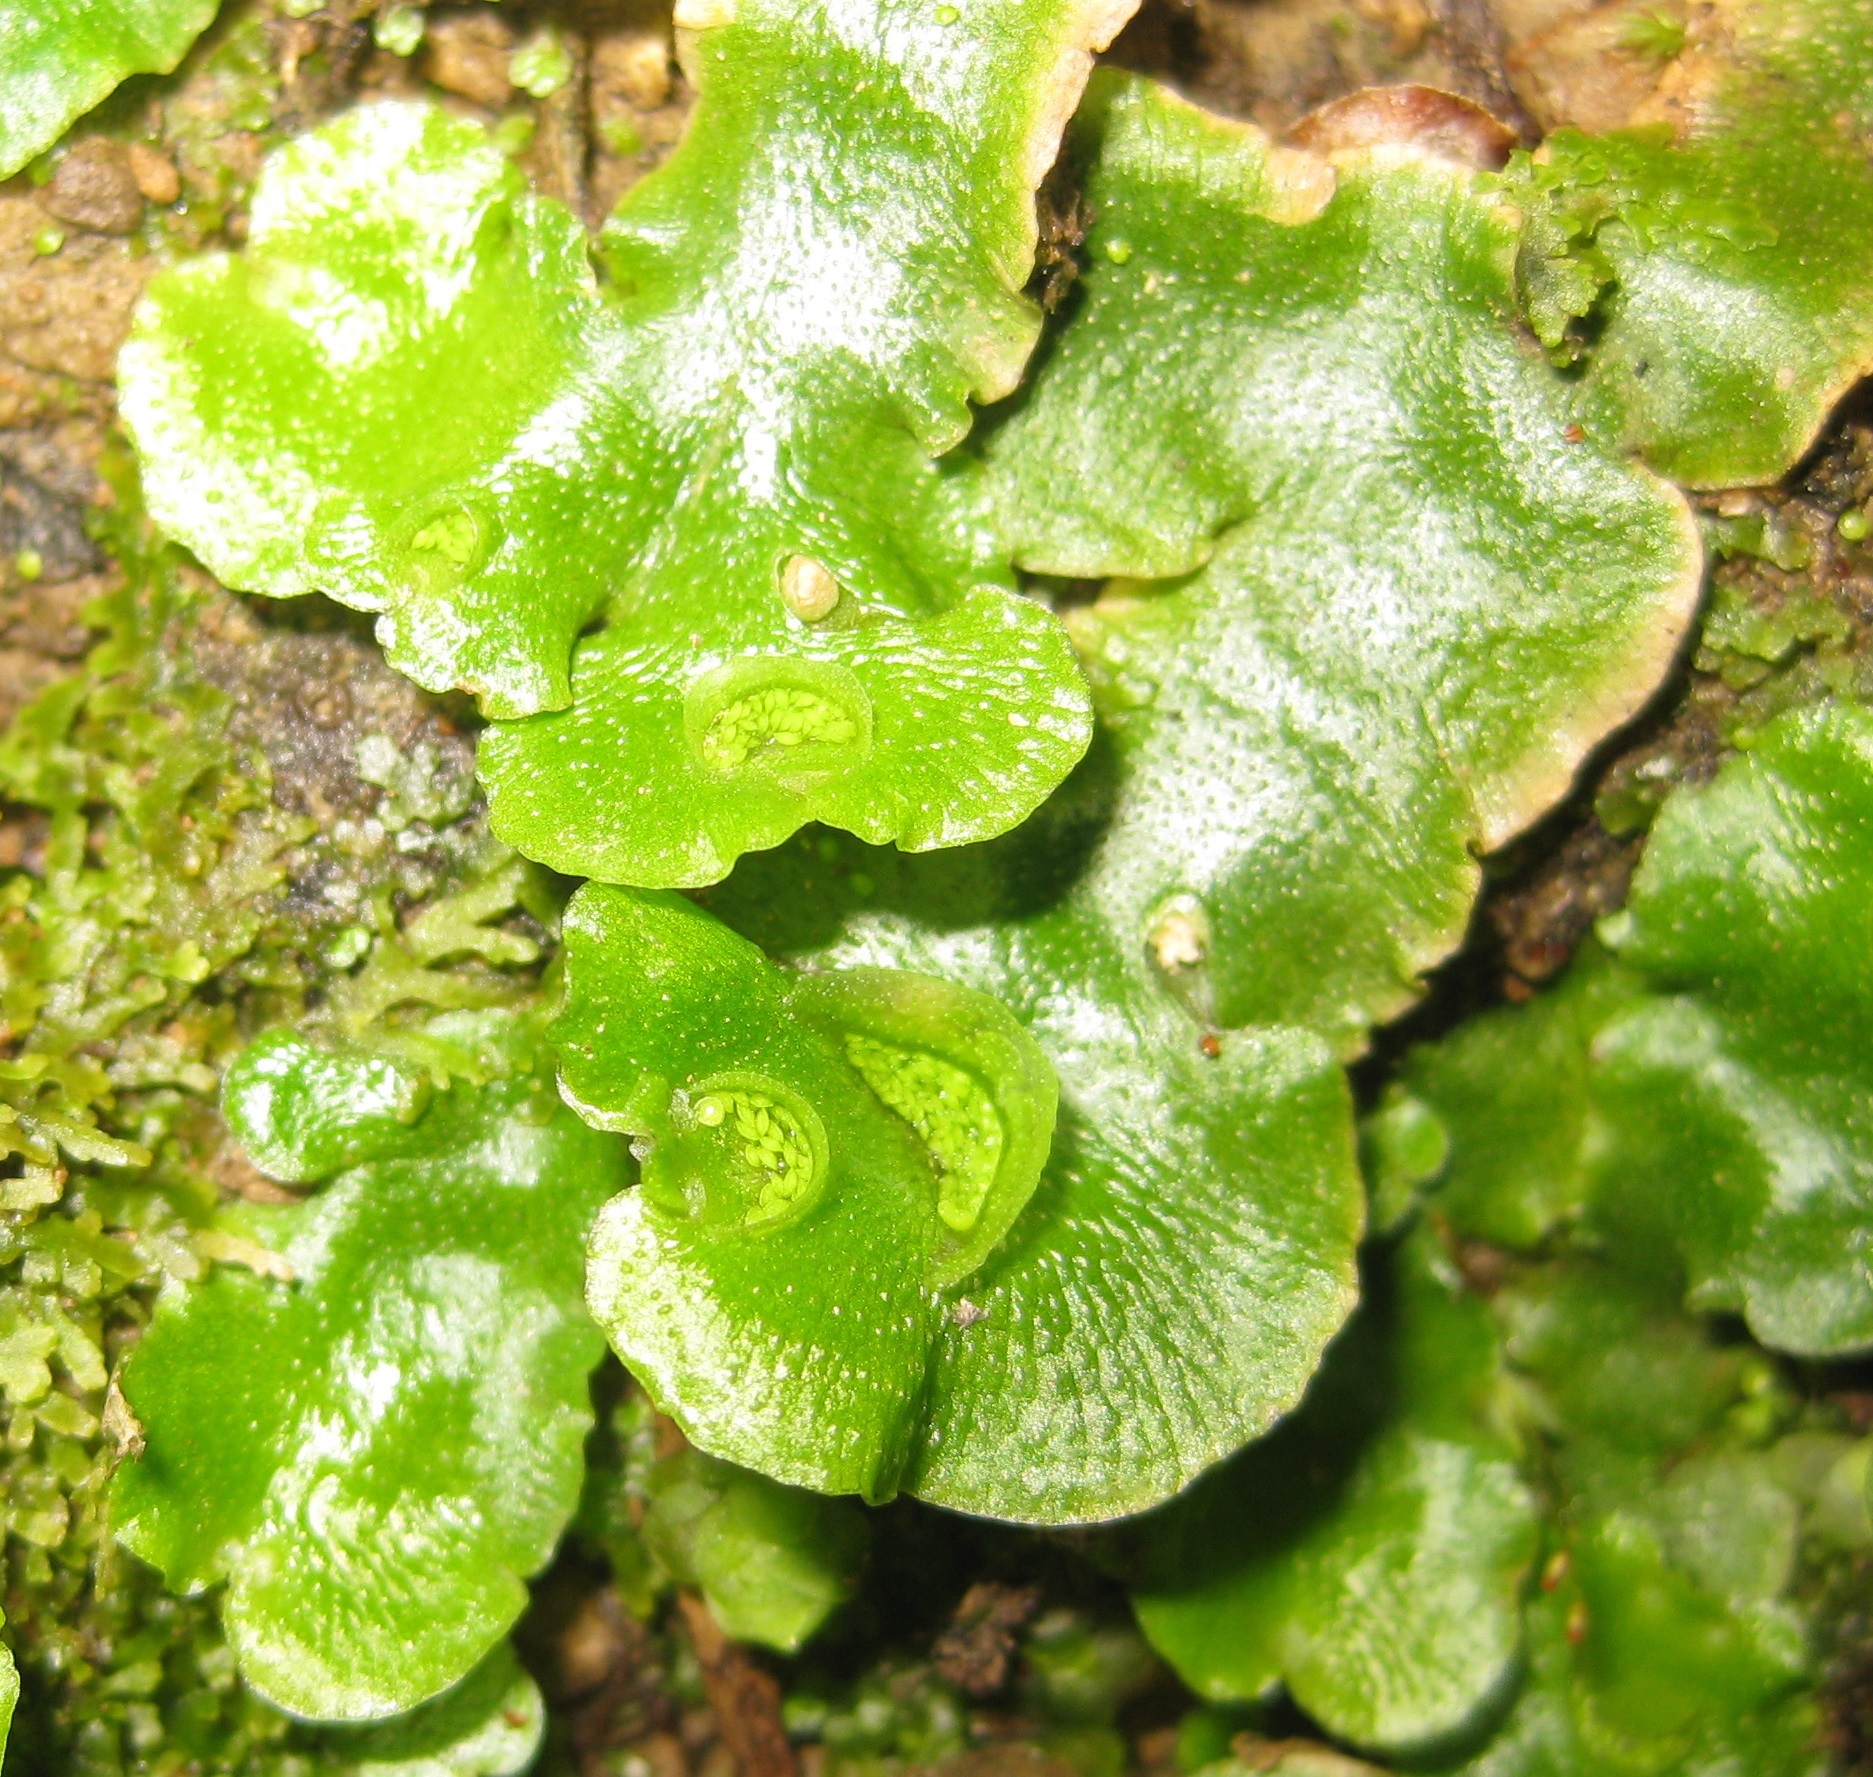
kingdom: Plantae
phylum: Marchantiophyta
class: Marchantiopsida
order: Lunulariales
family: Lunulariaceae
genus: Lunularia
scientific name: Lunularia cruciata
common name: Crescent-cup liverwort
